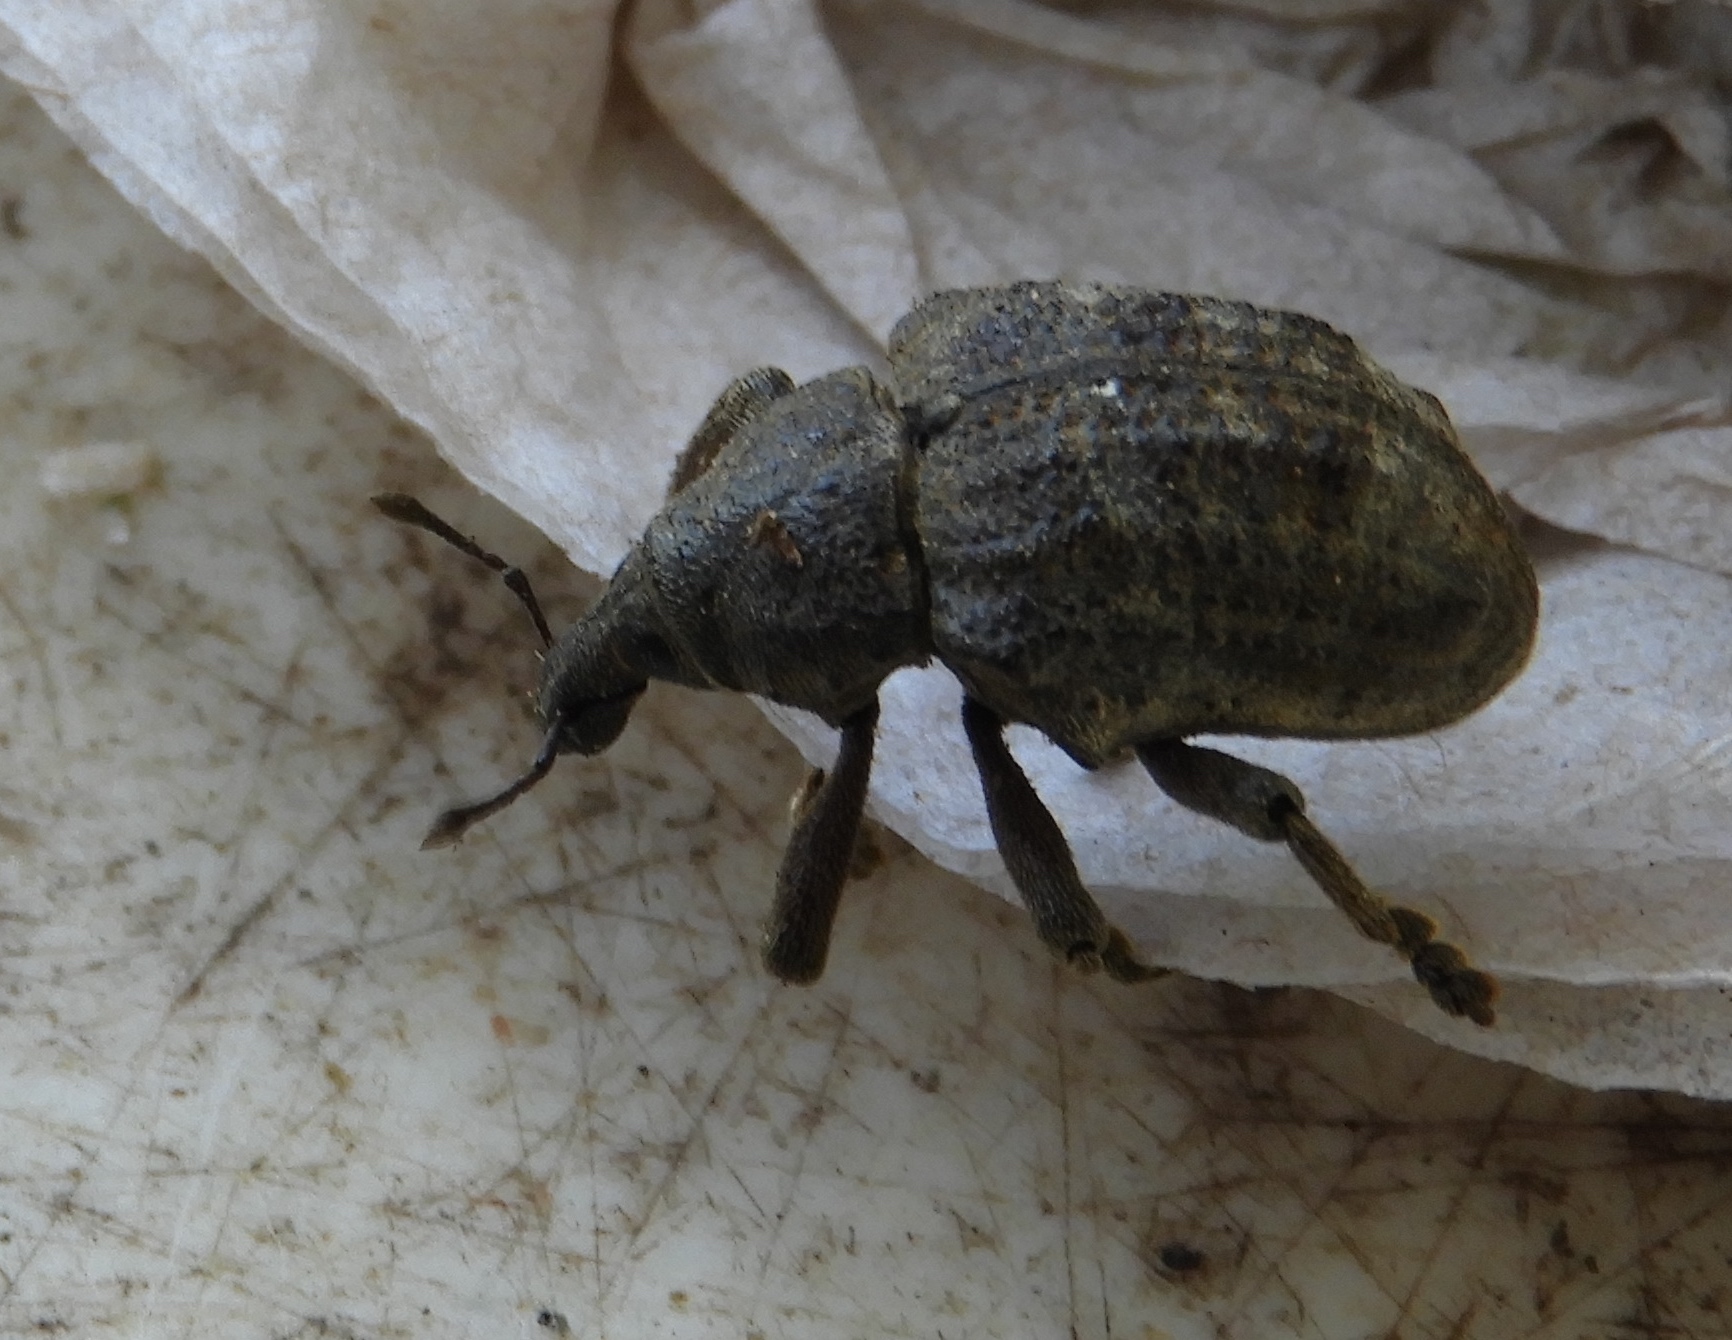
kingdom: Animalia
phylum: Arthropoda
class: Insecta
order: Coleoptera
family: Curculionidae
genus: Sternechus
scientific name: Sternechus
